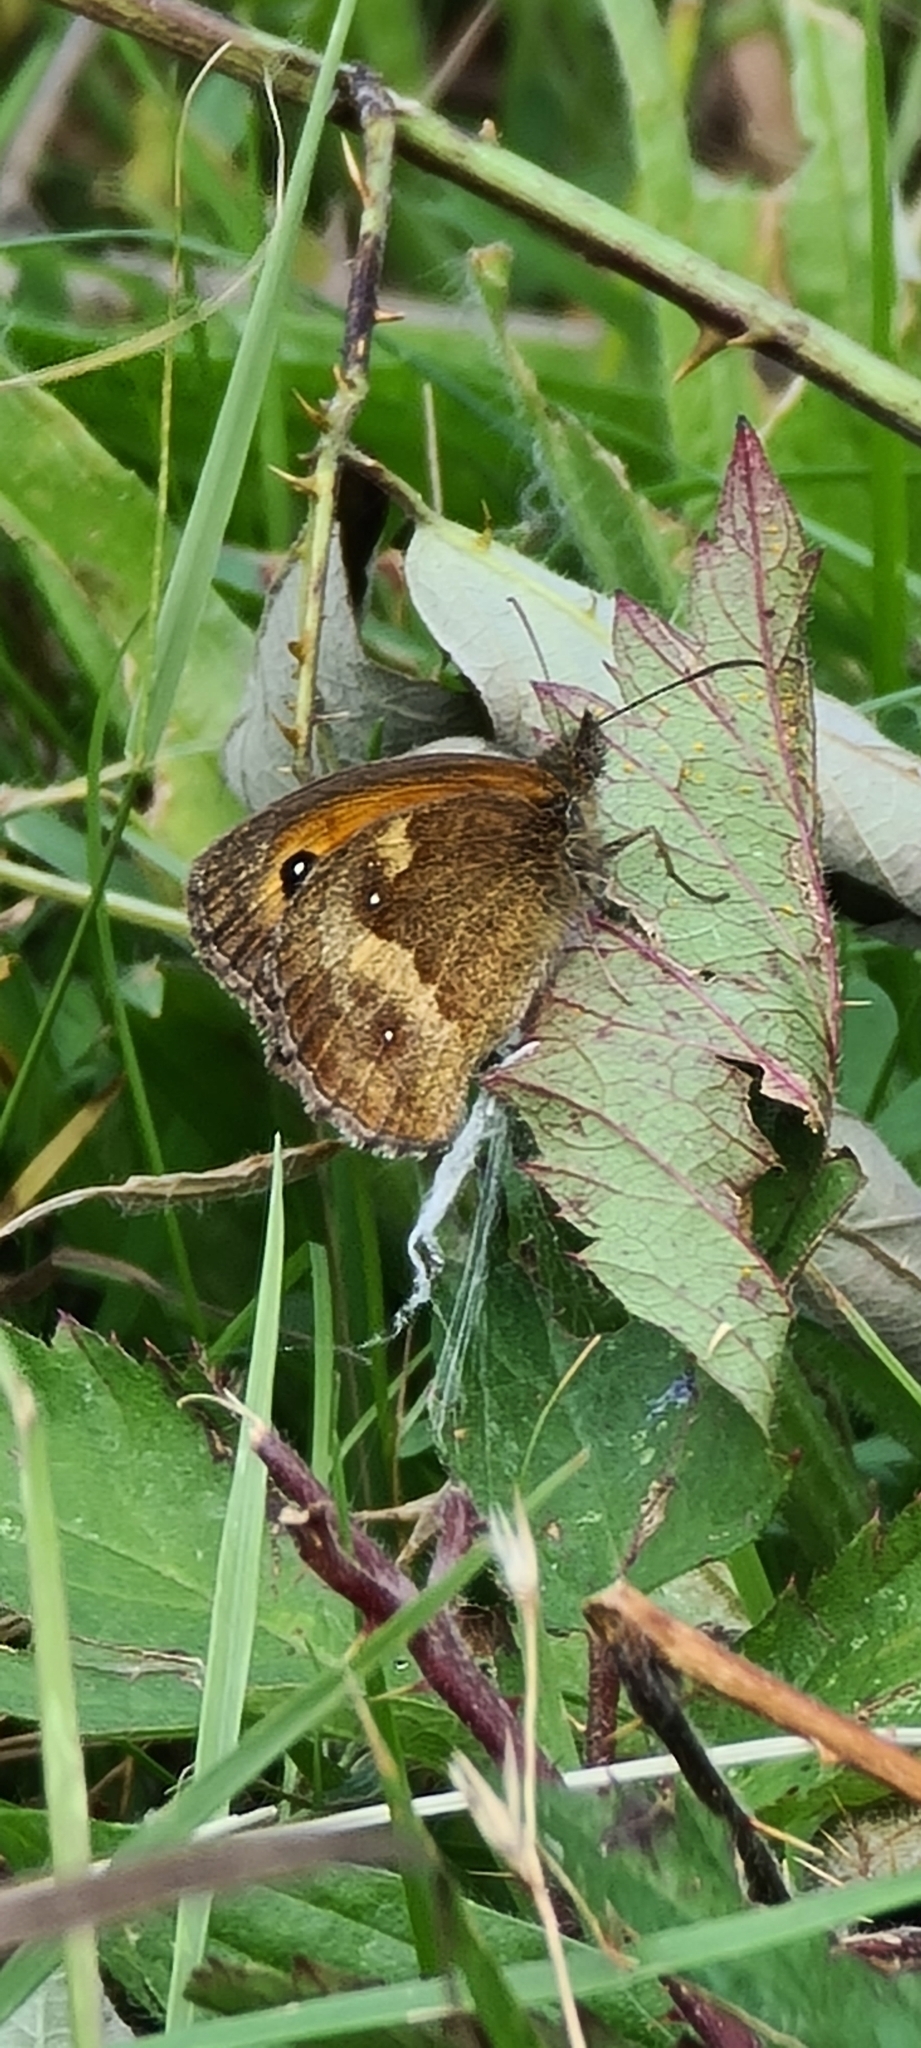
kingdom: Animalia
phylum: Arthropoda
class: Insecta
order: Lepidoptera
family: Nymphalidae
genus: Pyronia
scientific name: Pyronia tithonus
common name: Gatekeeper
